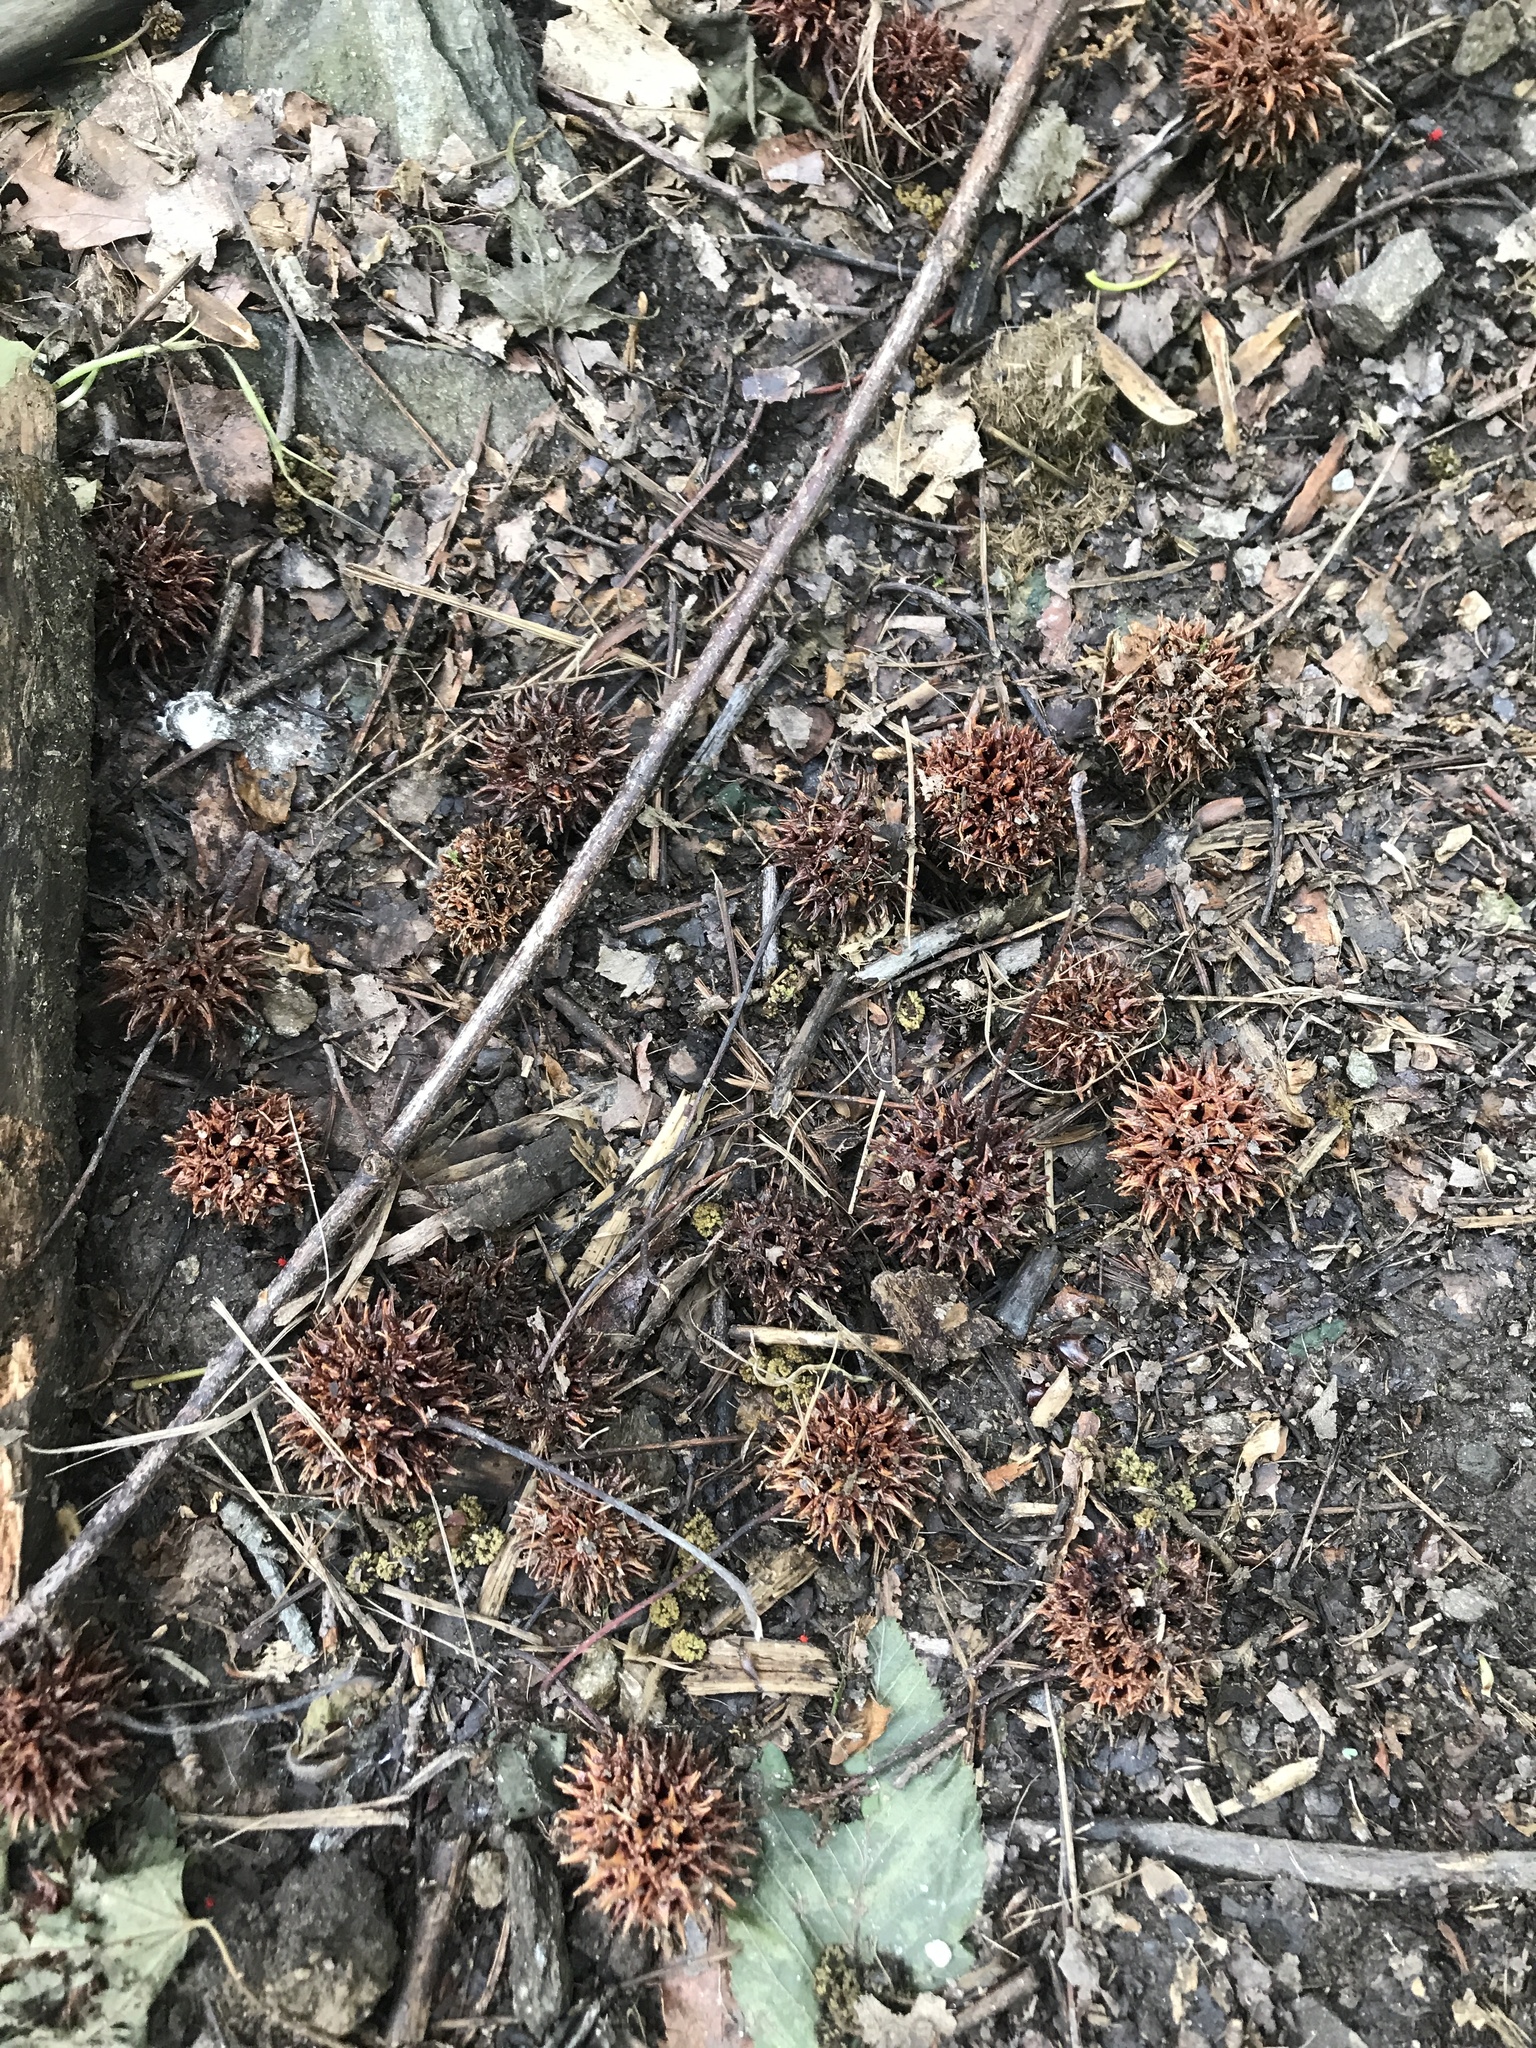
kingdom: Plantae
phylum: Tracheophyta
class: Magnoliopsida
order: Saxifragales
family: Altingiaceae
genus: Liquidambar
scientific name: Liquidambar styraciflua
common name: Sweet gum
